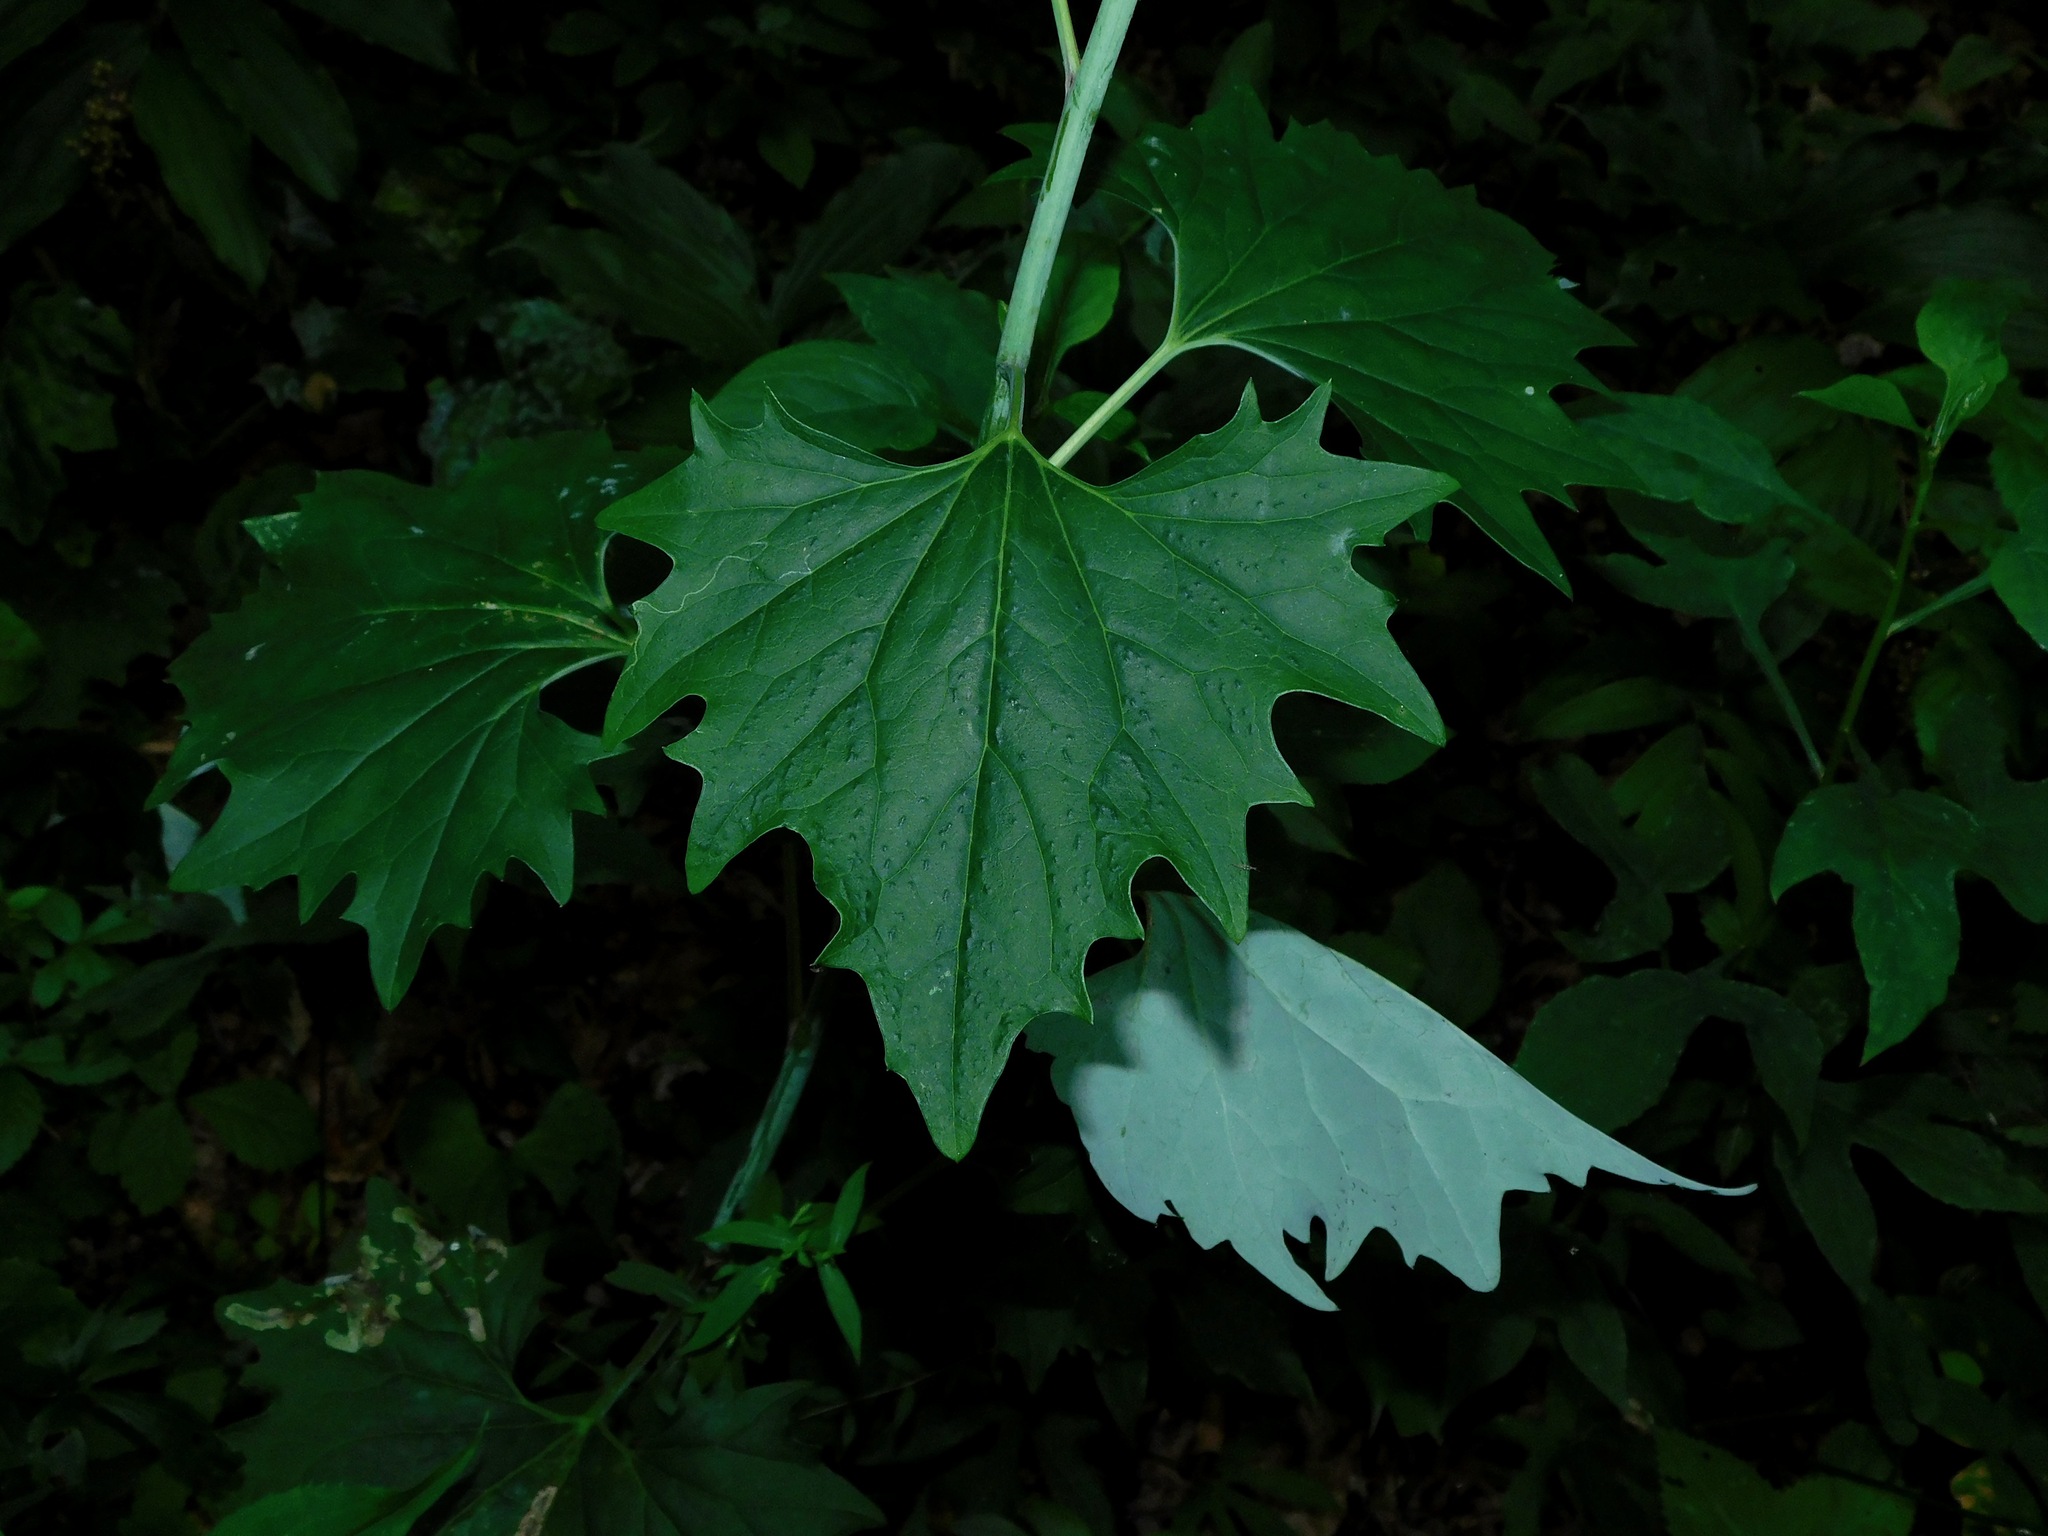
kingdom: Plantae
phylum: Tracheophyta
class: Magnoliopsida
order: Asterales
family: Asteraceae
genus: Arnoglossum
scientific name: Arnoglossum atriplicifolium
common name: Pale indian-plantain
